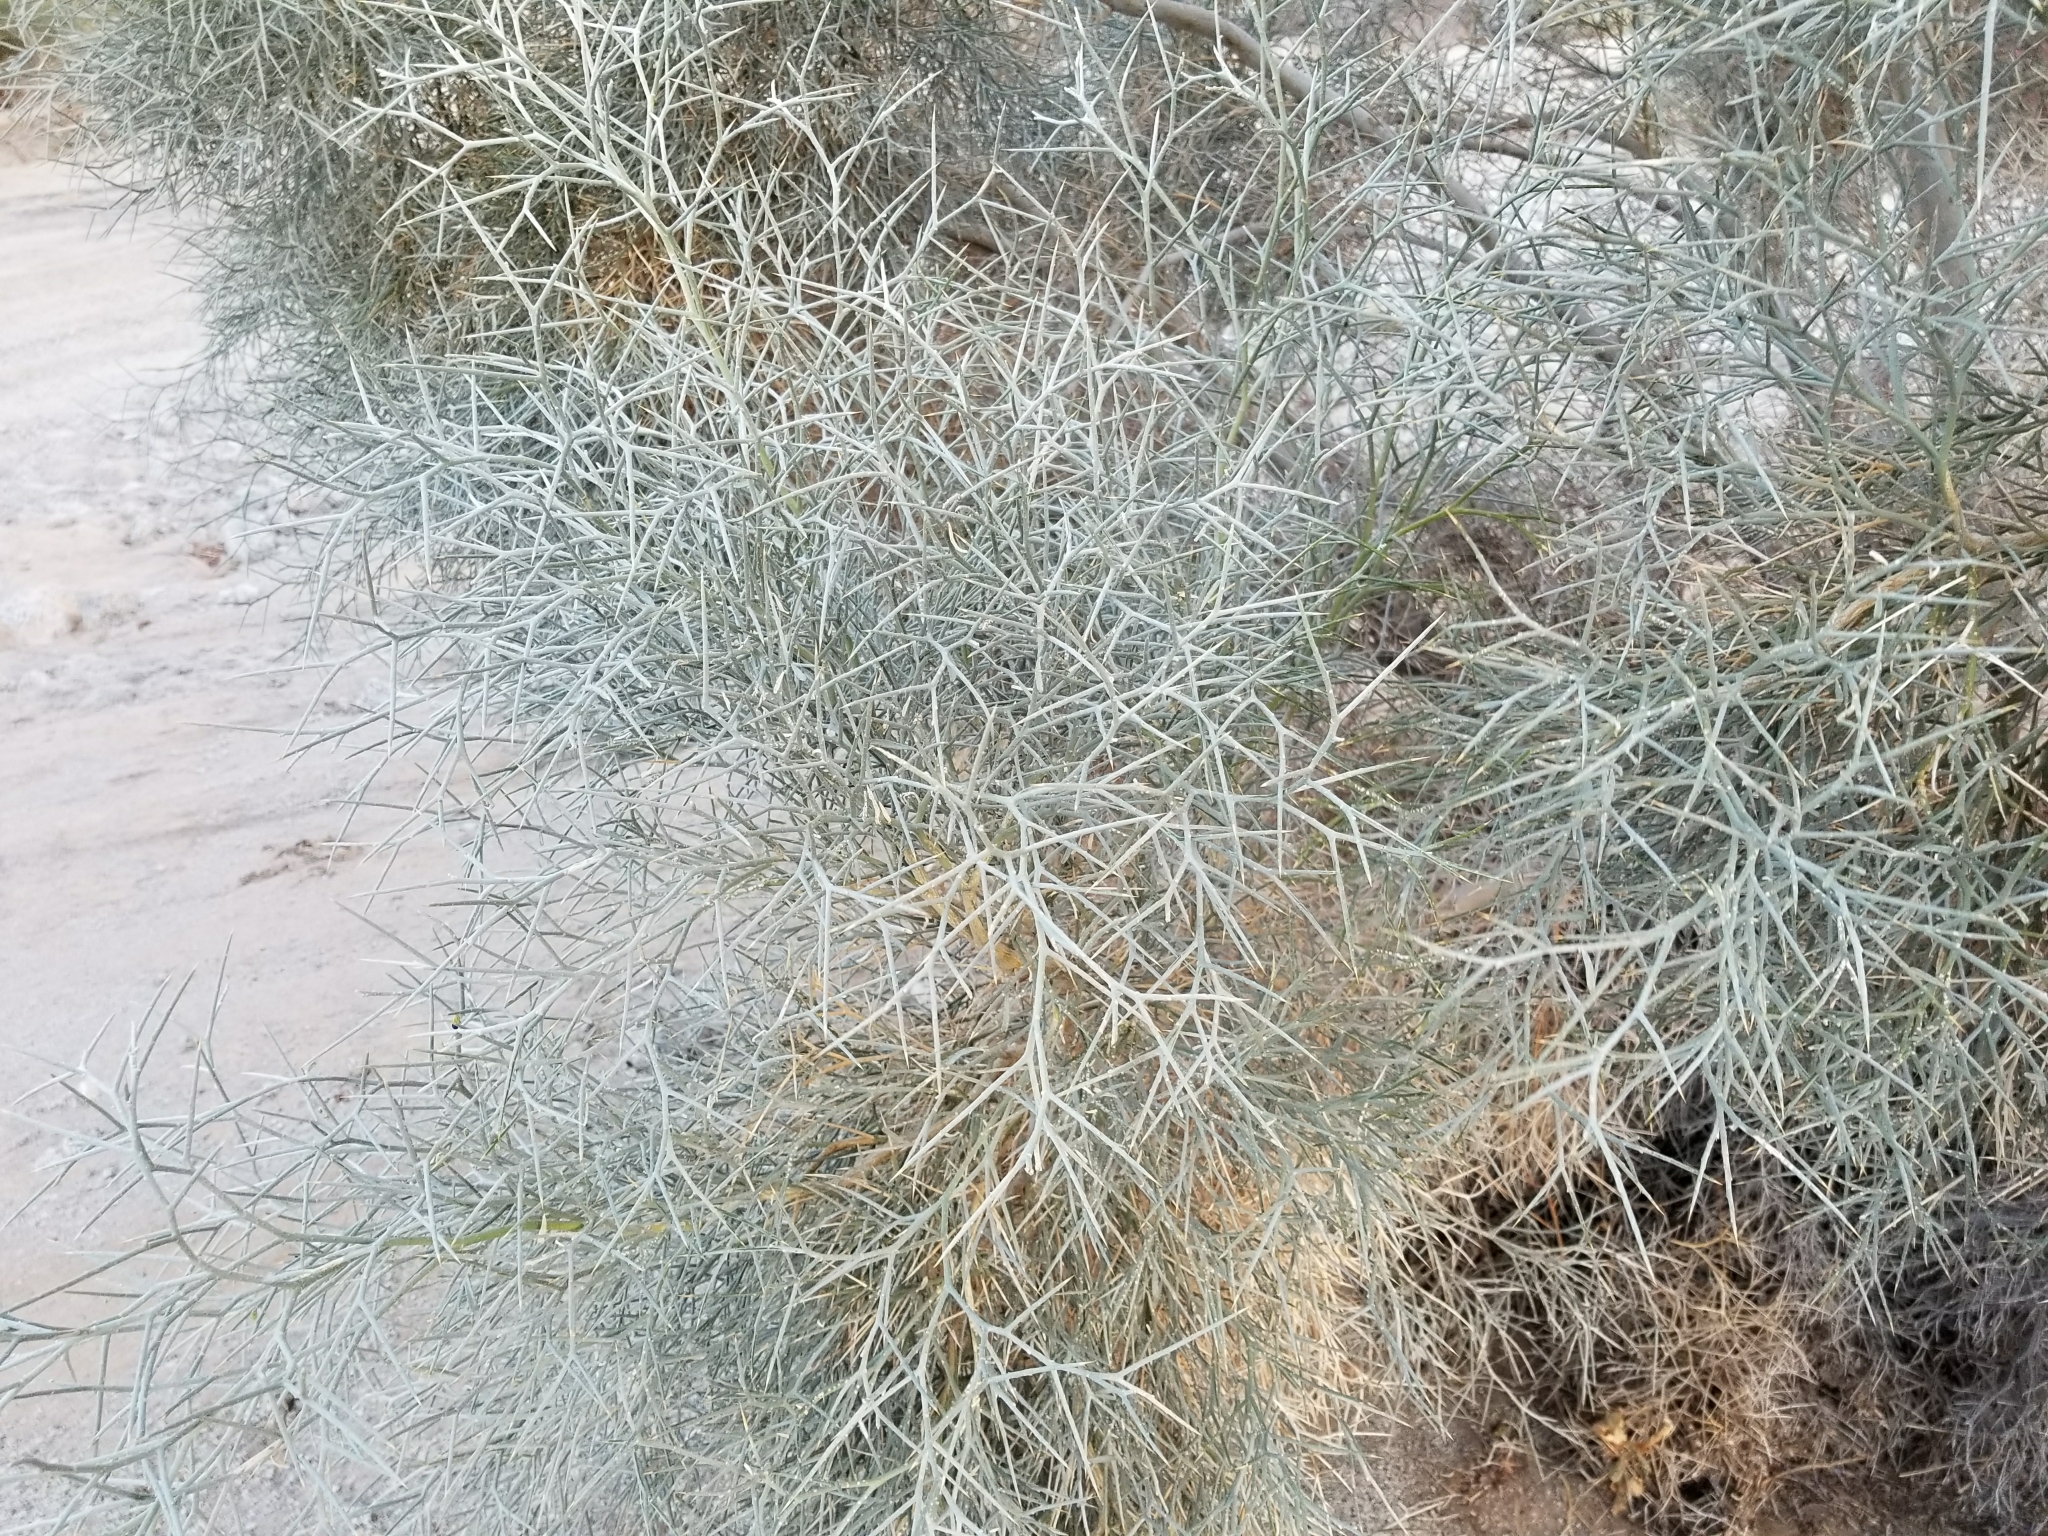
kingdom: Plantae
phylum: Tracheophyta
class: Magnoliopsida
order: Fabales
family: Fabaceae
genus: Psorothamnus
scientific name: Psorothamnus spinosus
